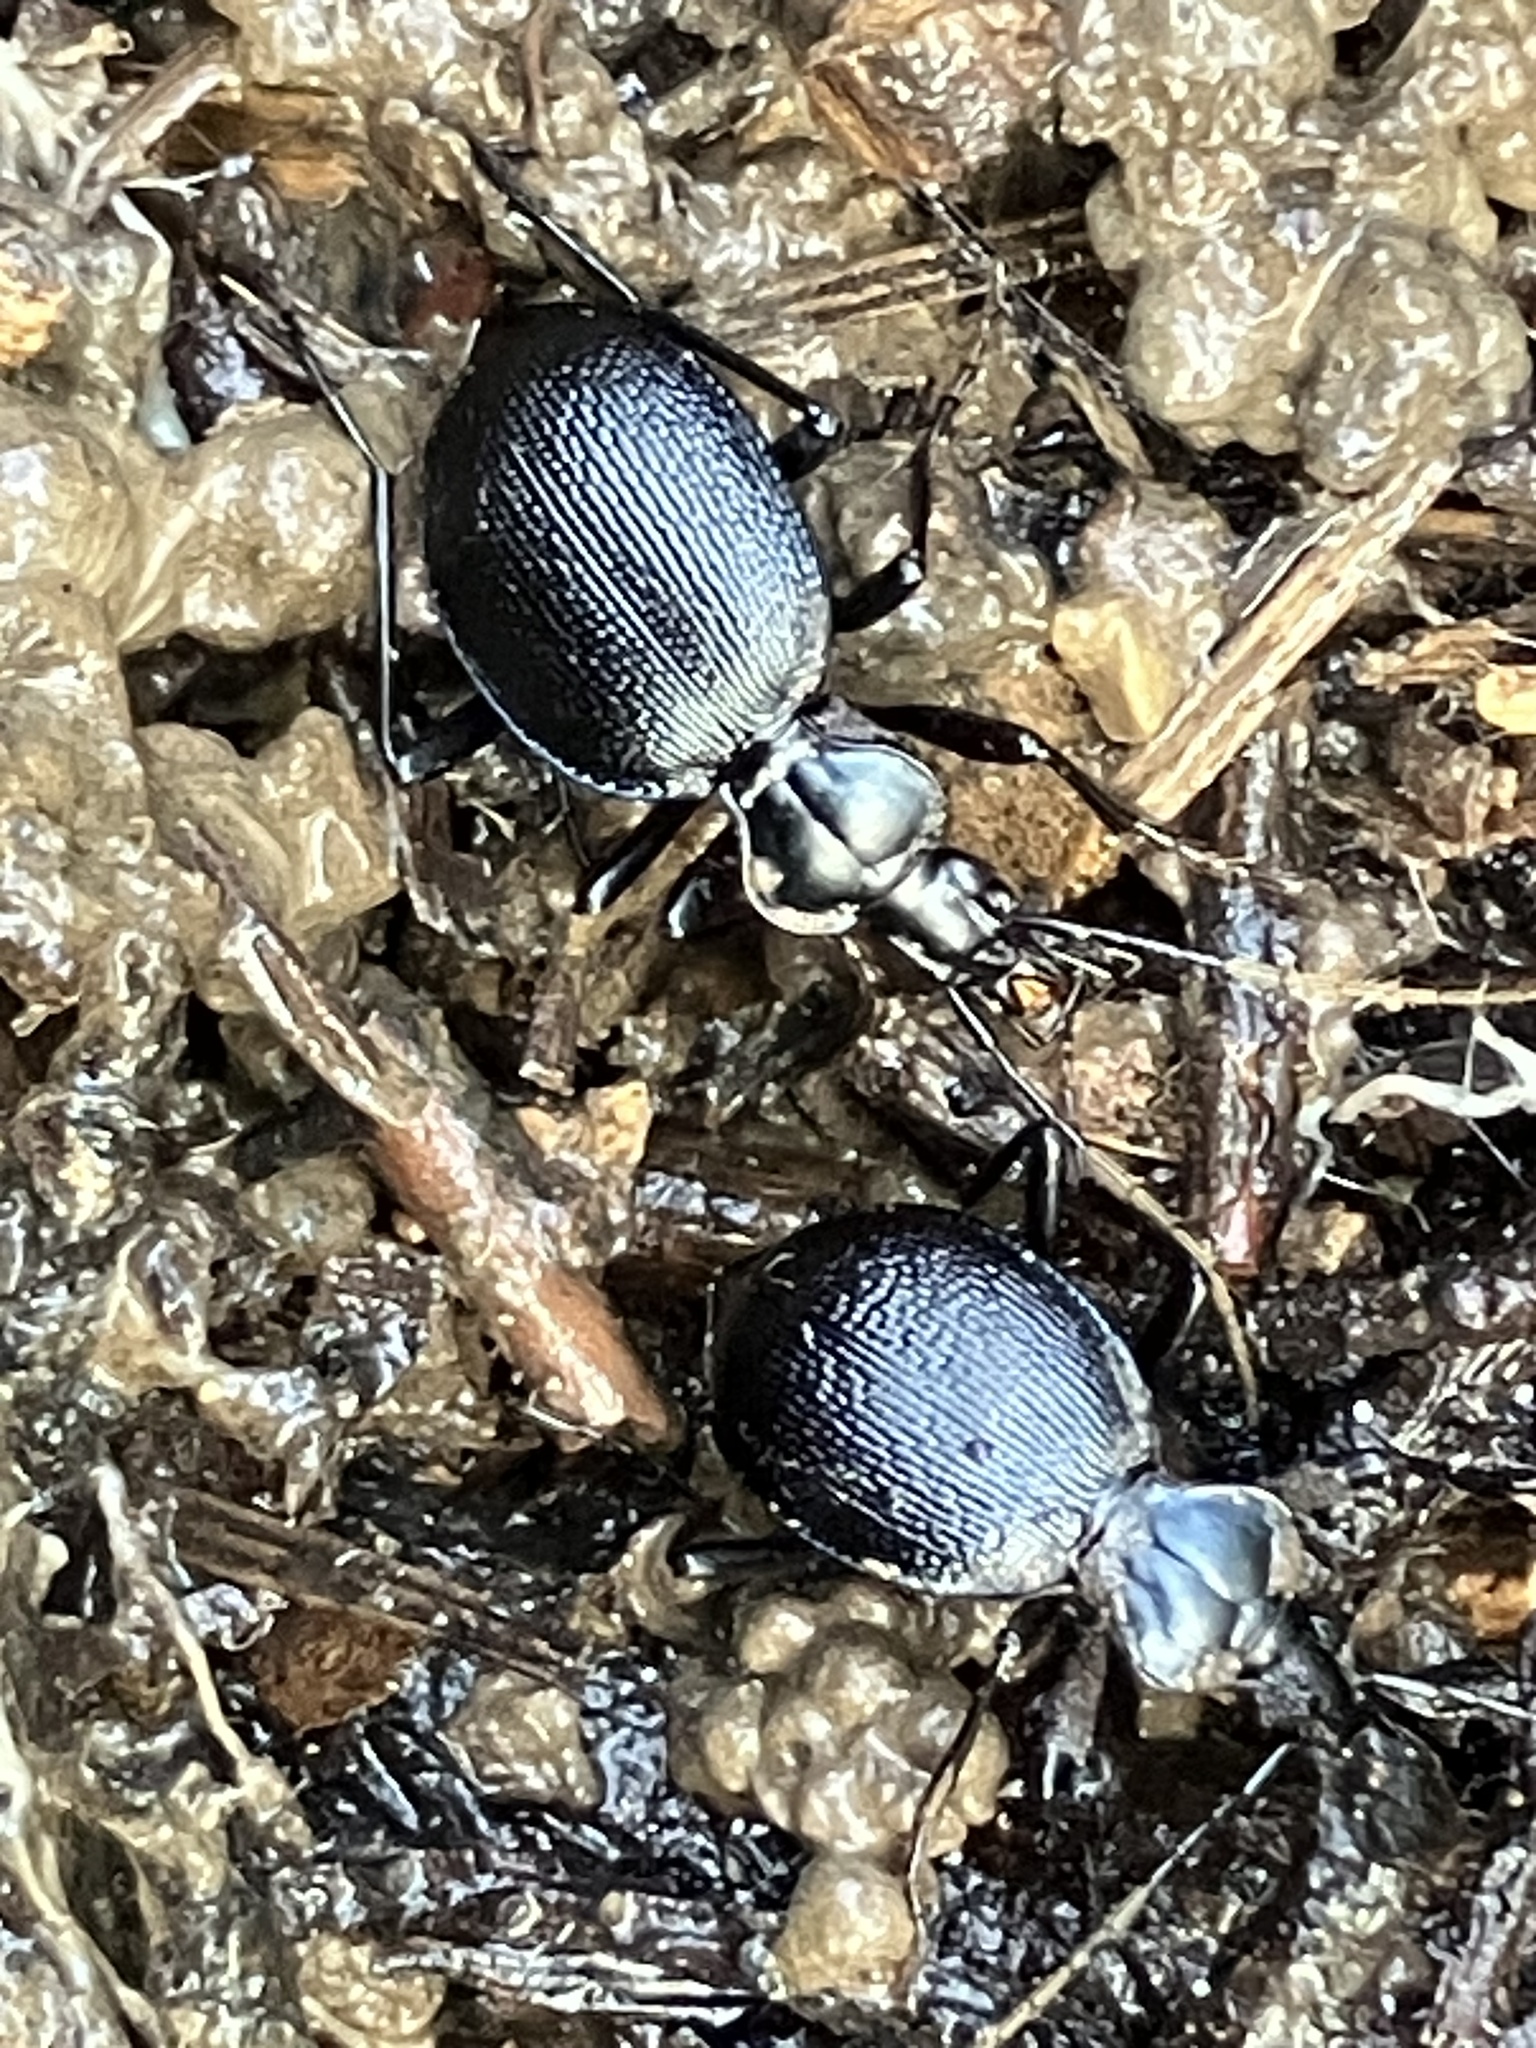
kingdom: Animalia
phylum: Arthropoda
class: Insecta
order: Coleoptera
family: Carabidae
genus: Scaphinotus
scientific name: Scaphinotus interruptus
